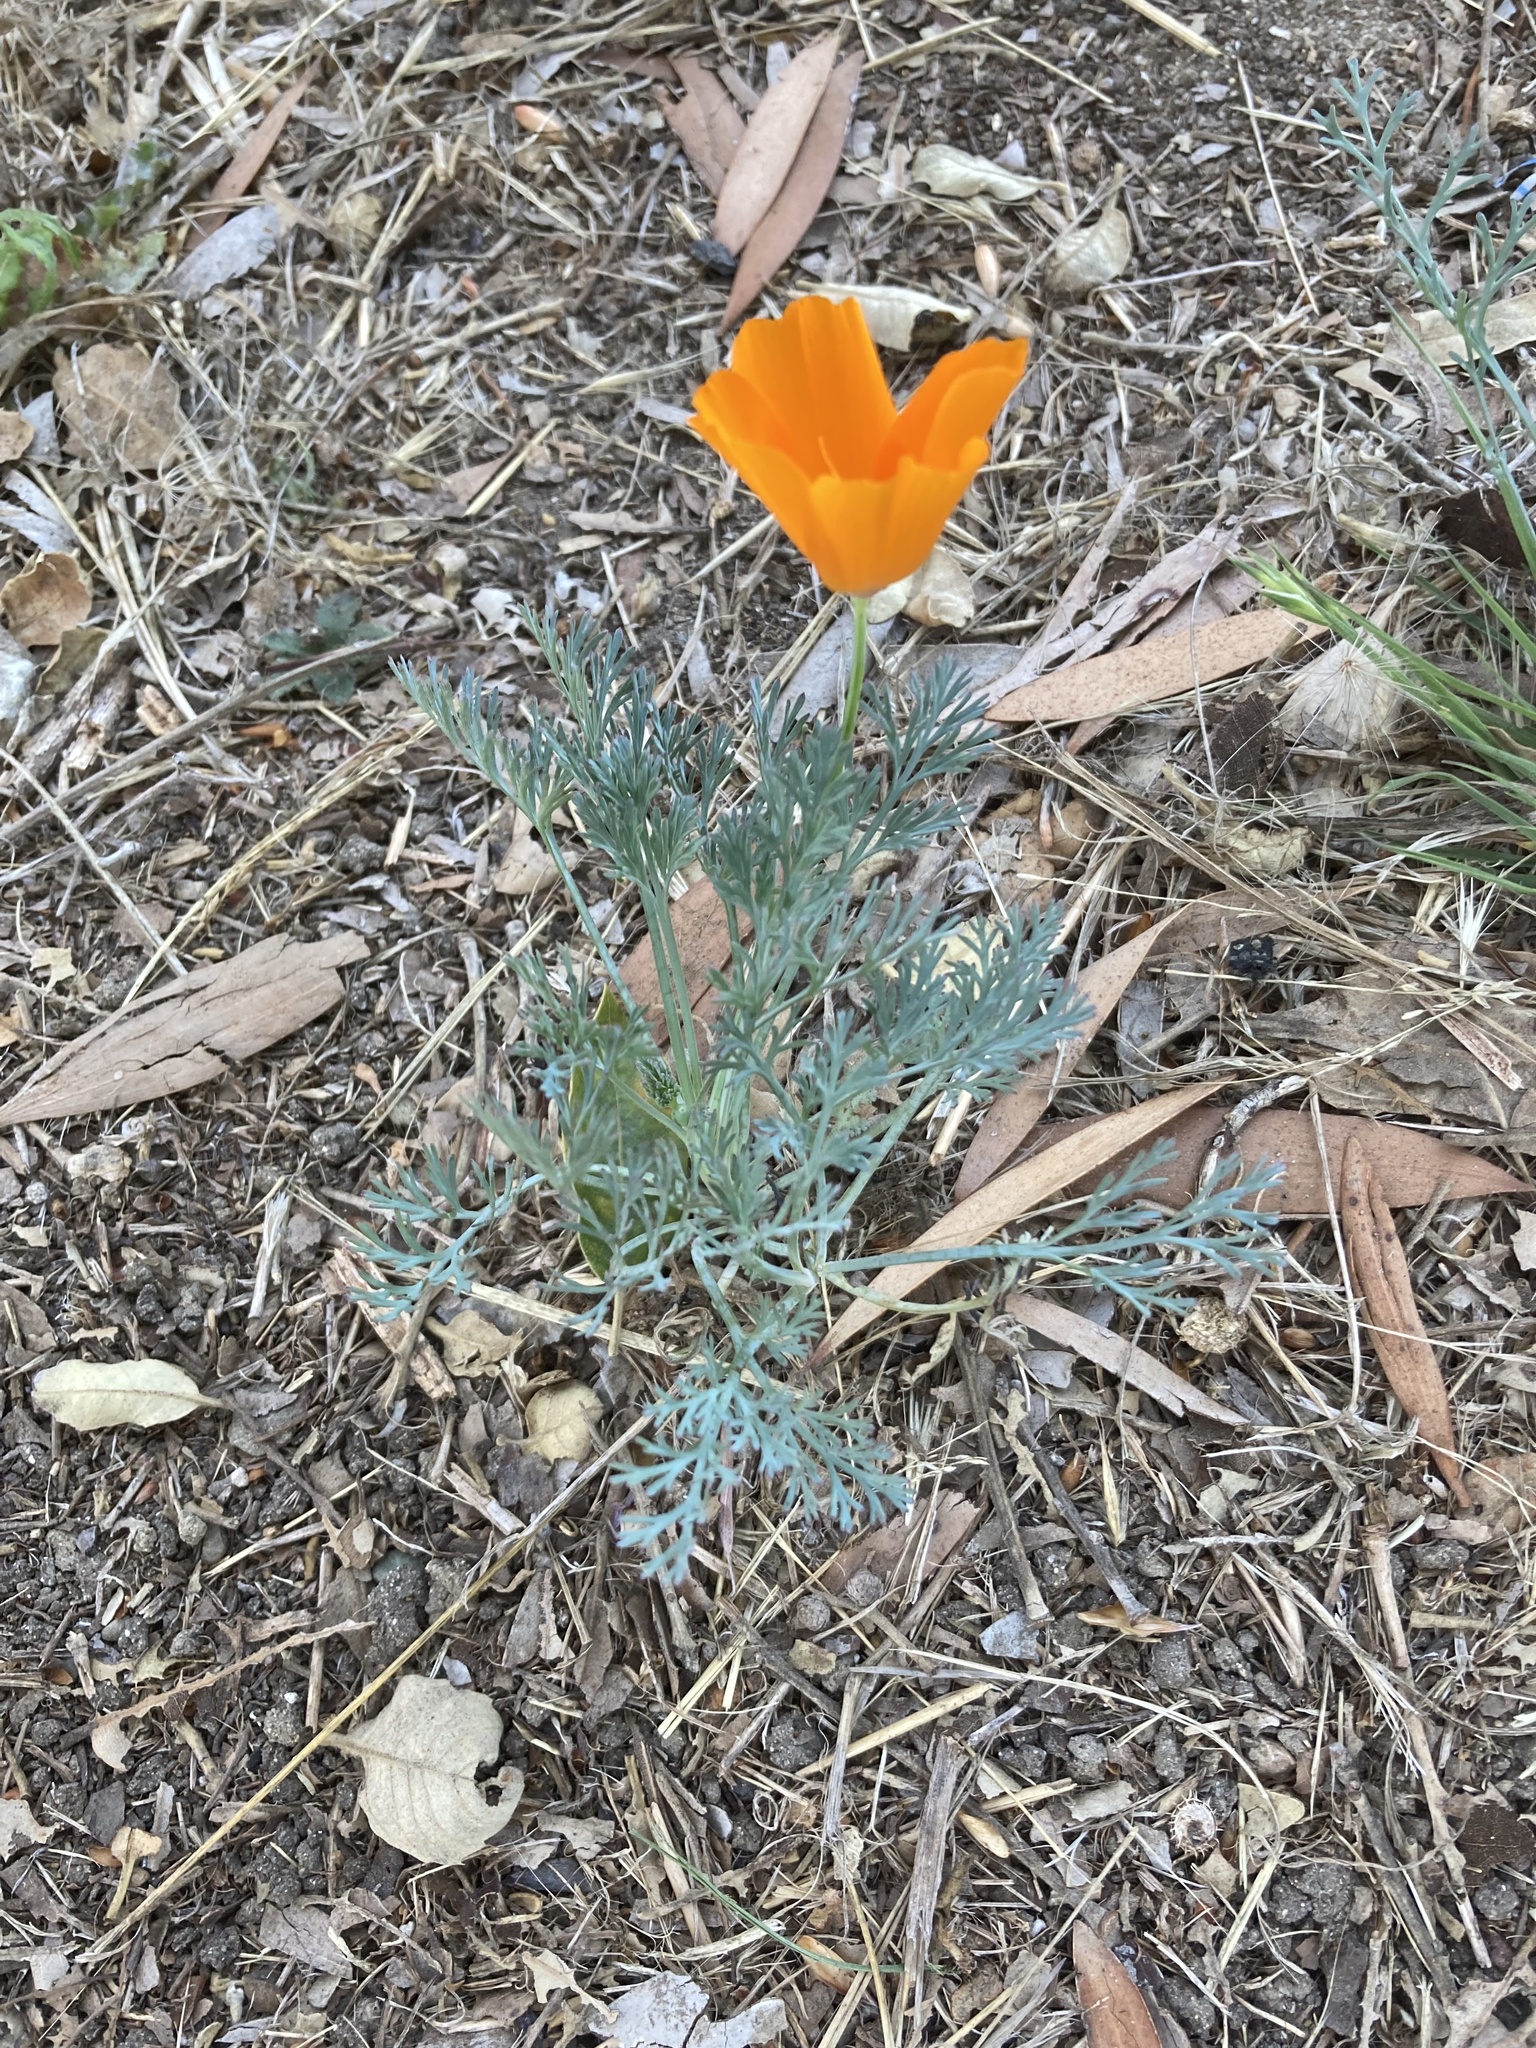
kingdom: Plantae
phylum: Tracheophyta
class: Magnoliopsida
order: Ranunculales
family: Papaveraceae
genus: Eschscholzia
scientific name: Eschscholzia californica
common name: California poppy
